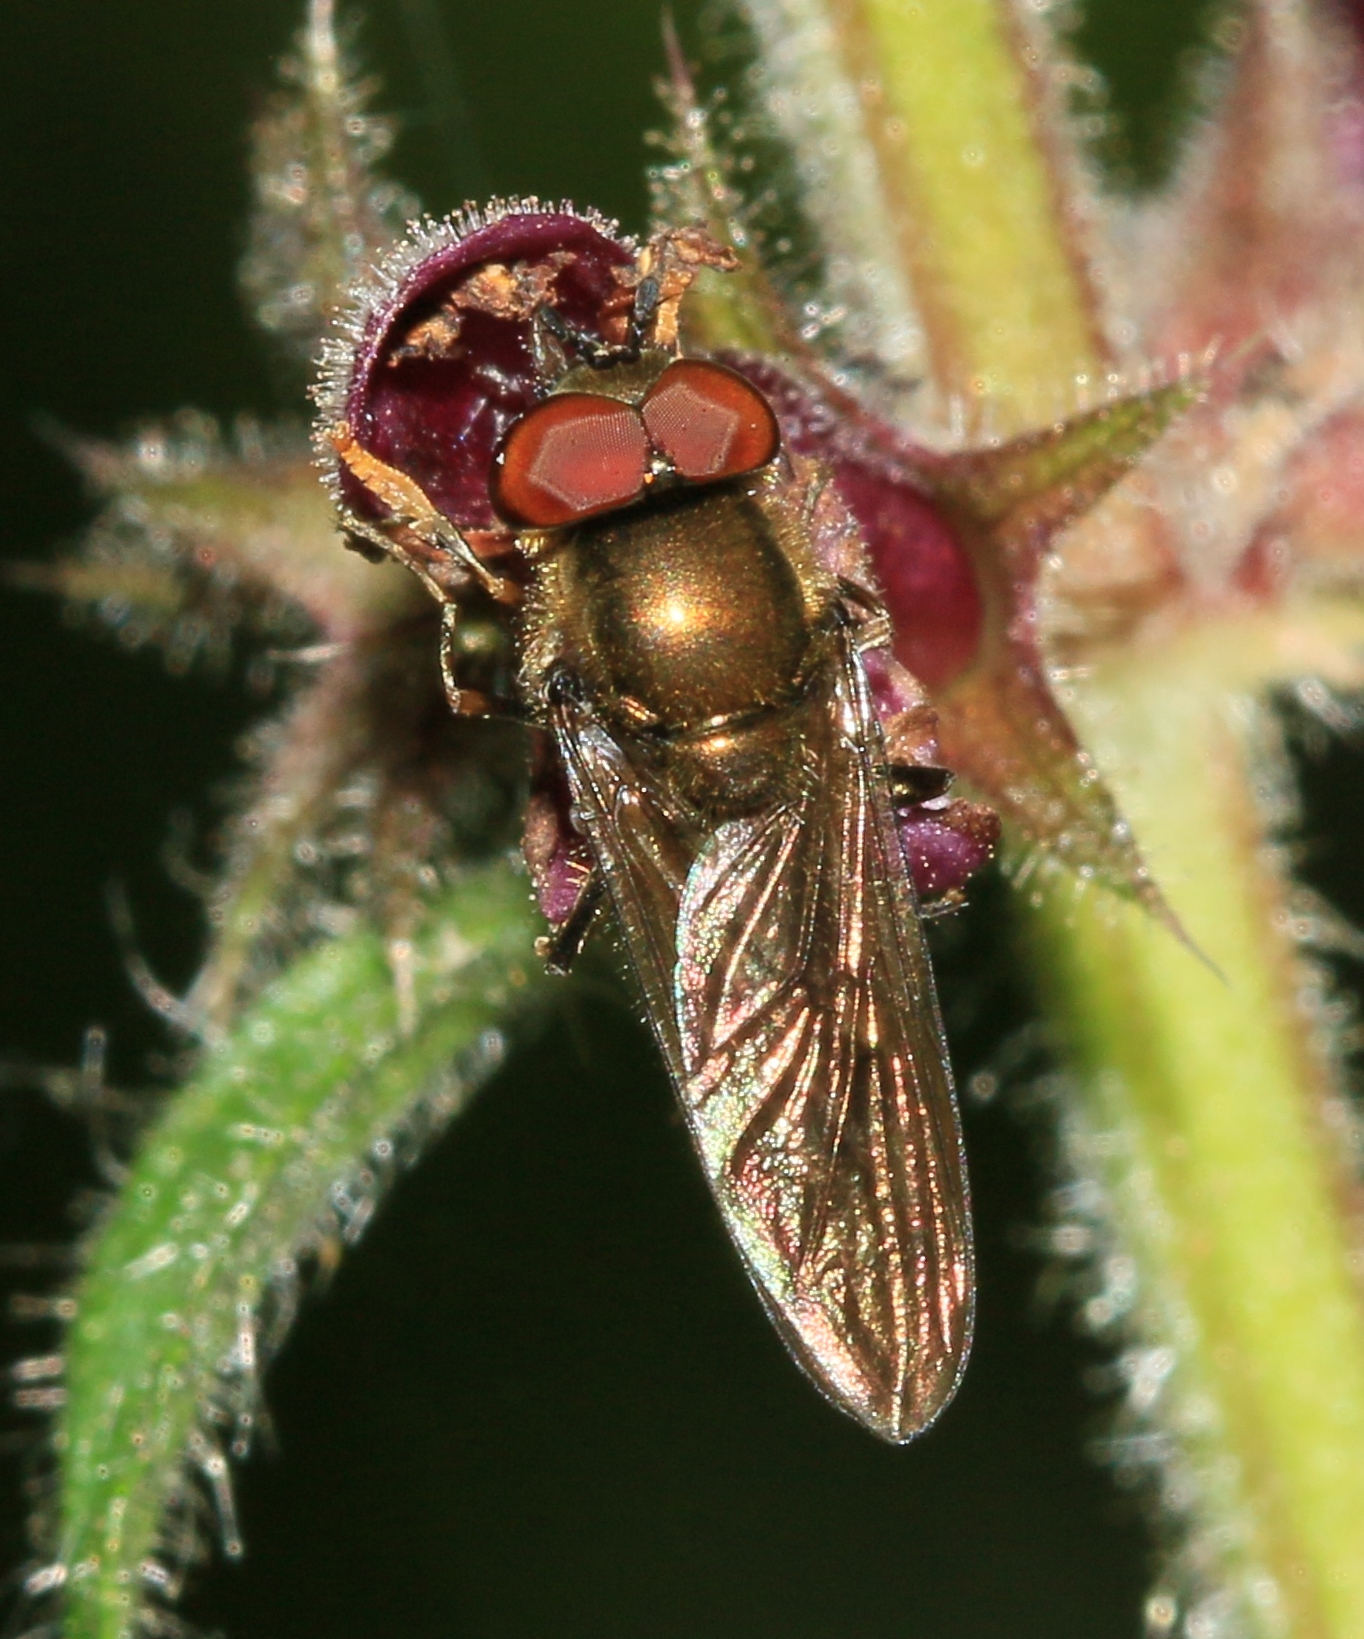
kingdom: Animalia
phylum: Arthropoda
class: Insecta
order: Diptera
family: Syrphidae
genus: Platycheirus
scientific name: Platycheirus scutatus
